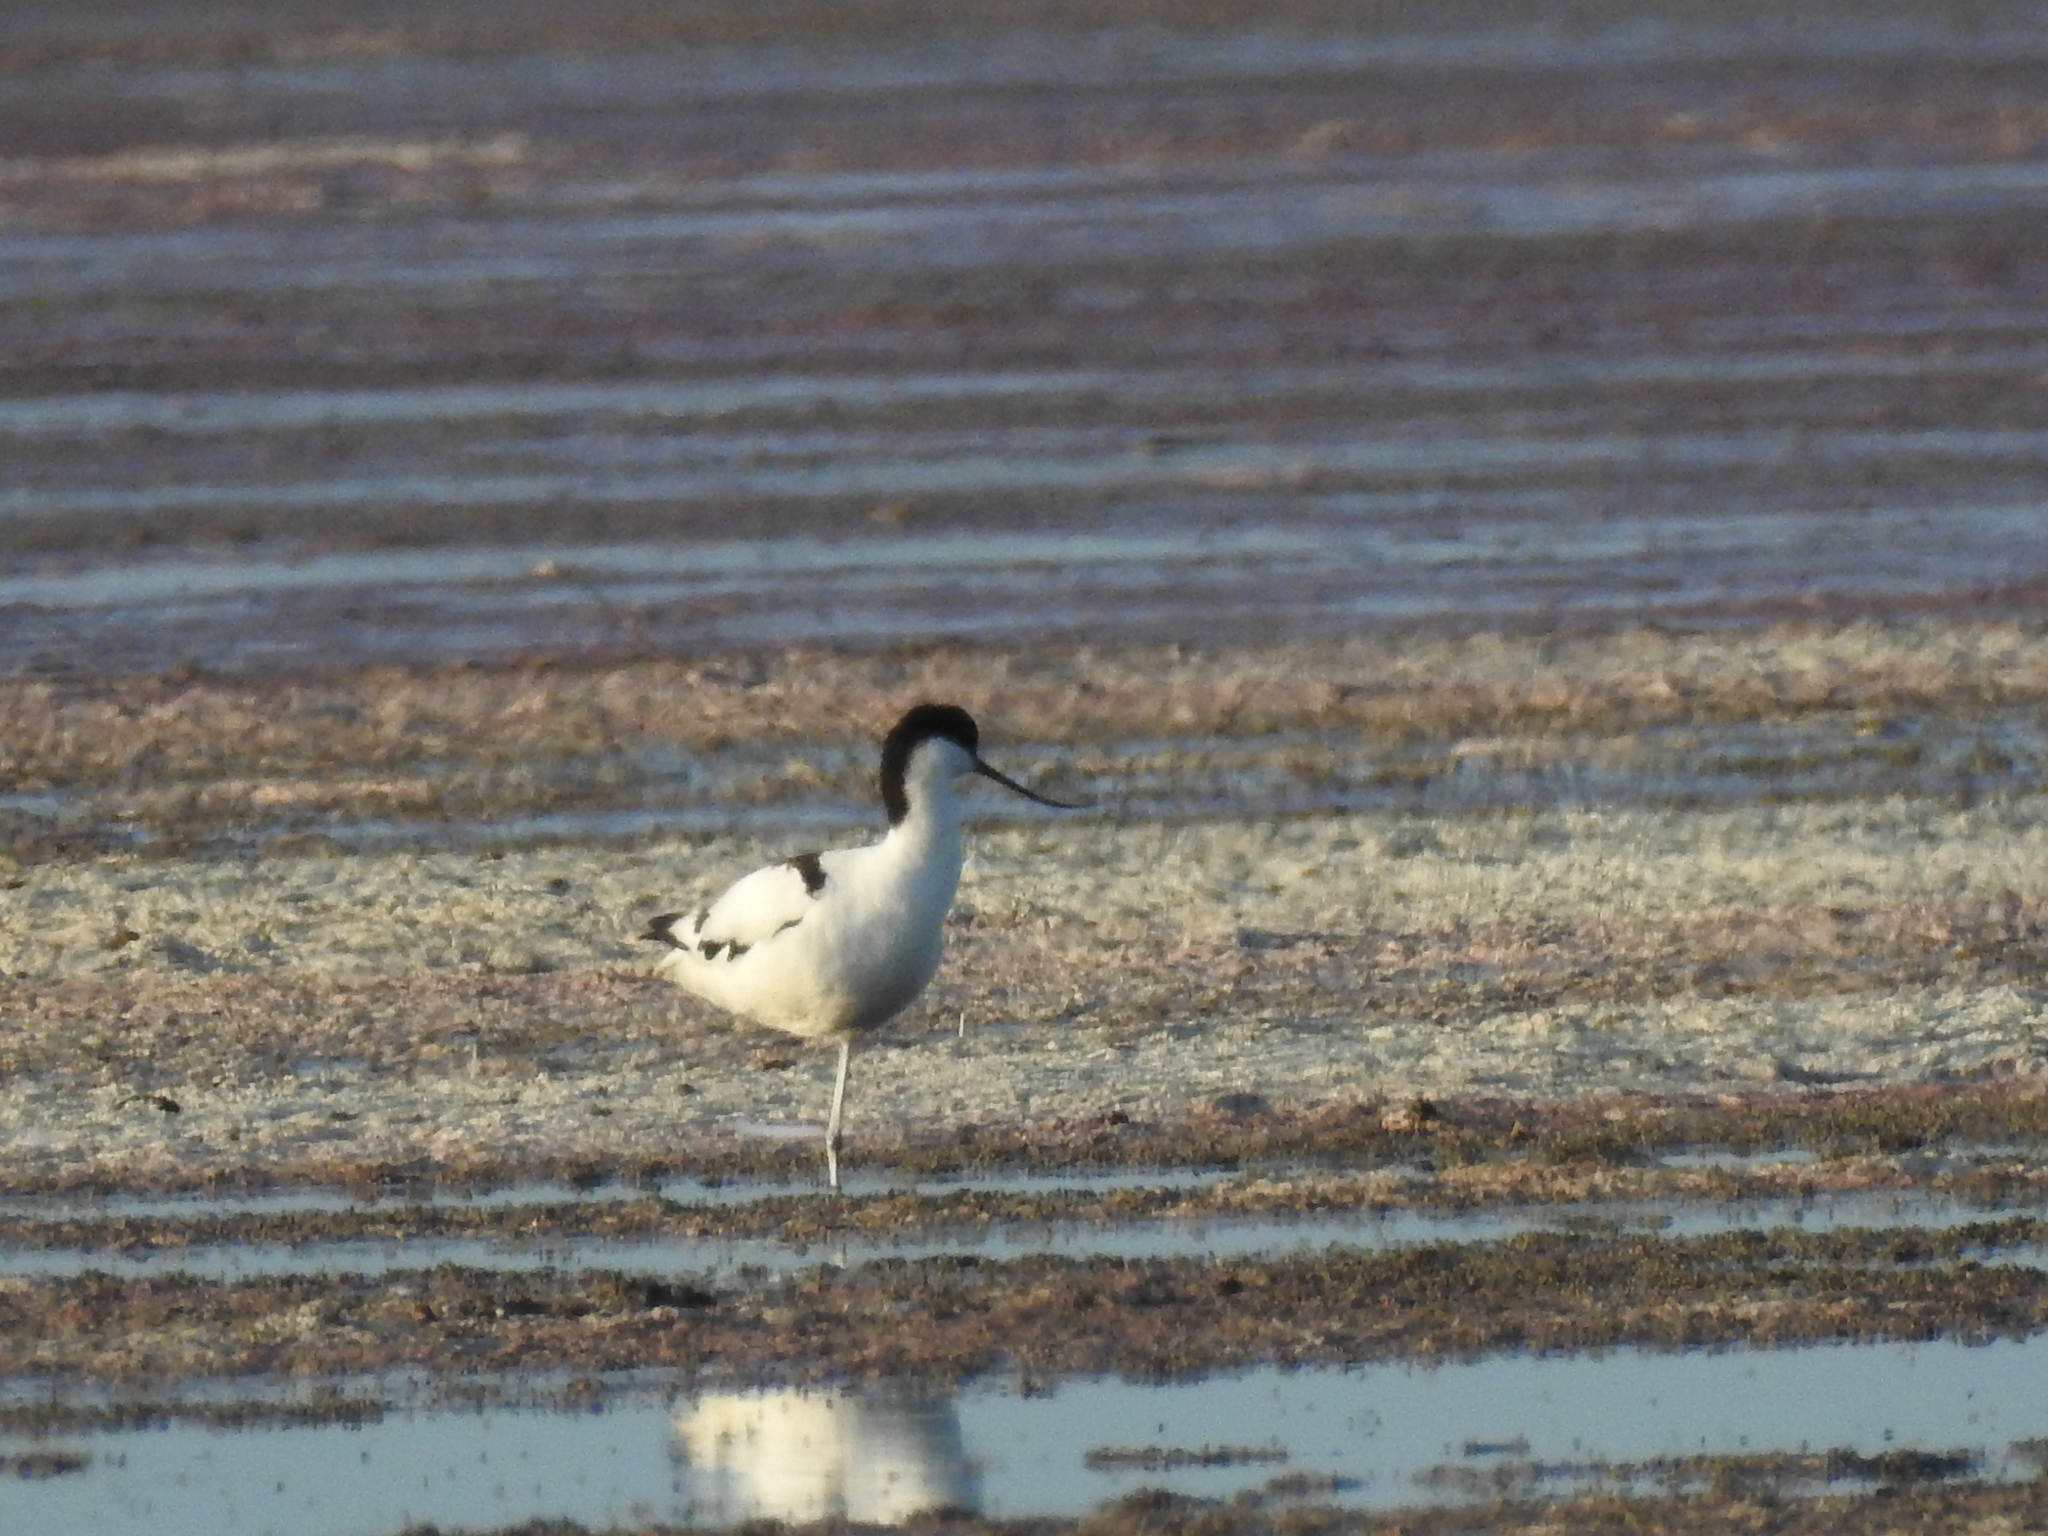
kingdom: Animalia
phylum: Chordata
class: Aves
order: Charadriiformes
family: Recurvirostridae
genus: Recurvirostra
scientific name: Recurvirostra avosetta
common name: Pied avocet
